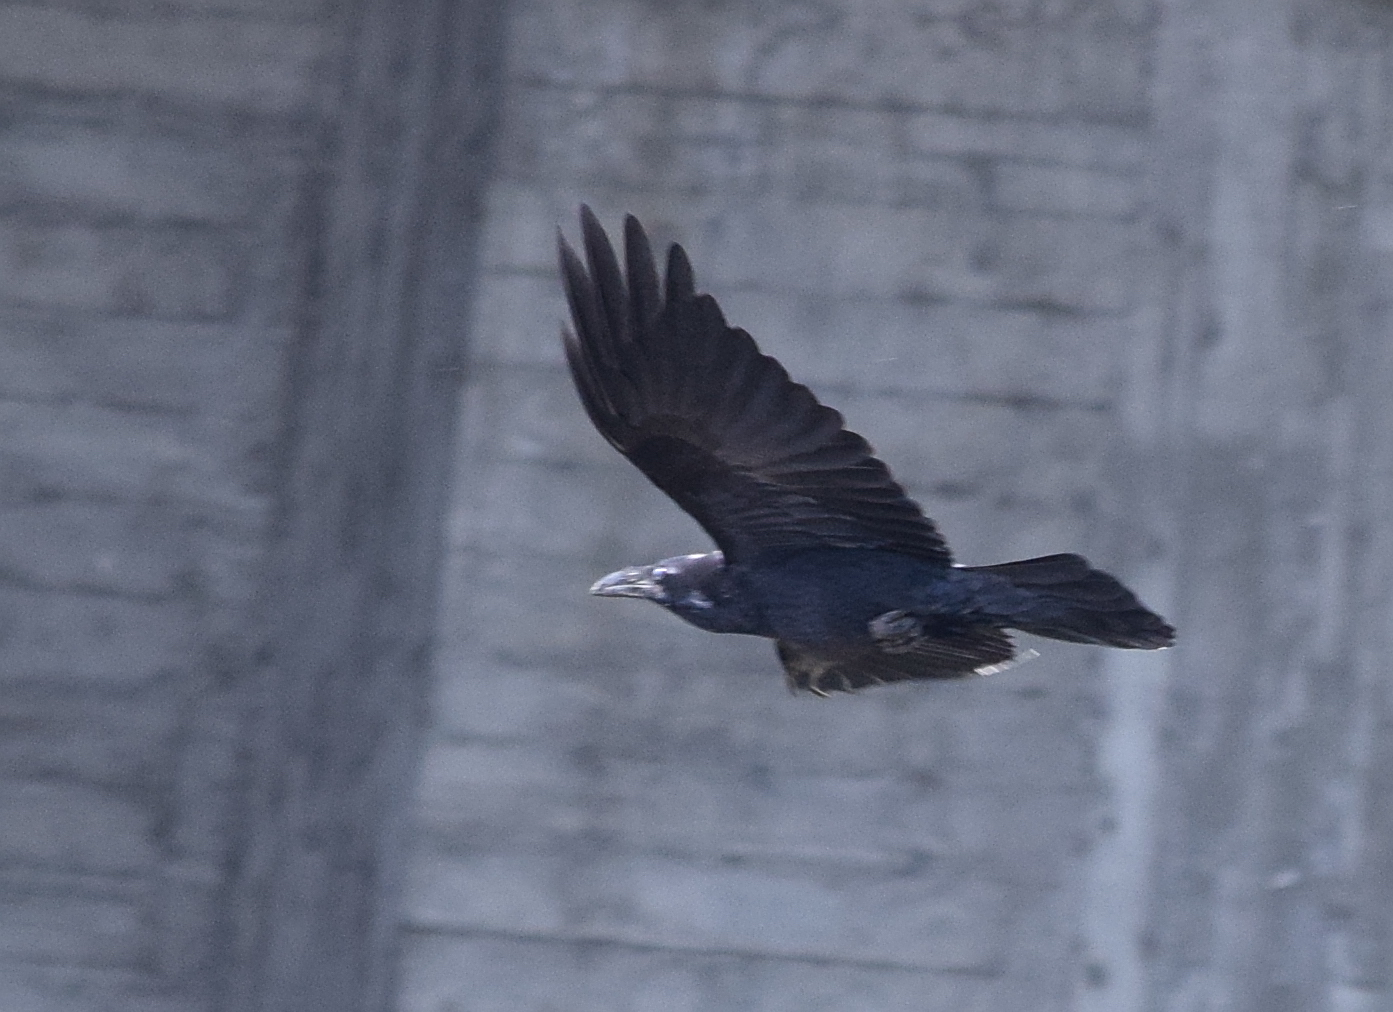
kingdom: Animalia
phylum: Chordata
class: Aves
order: Passeriformes
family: Corvidae
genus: Corvus
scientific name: Corvus corax
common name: Common raven
